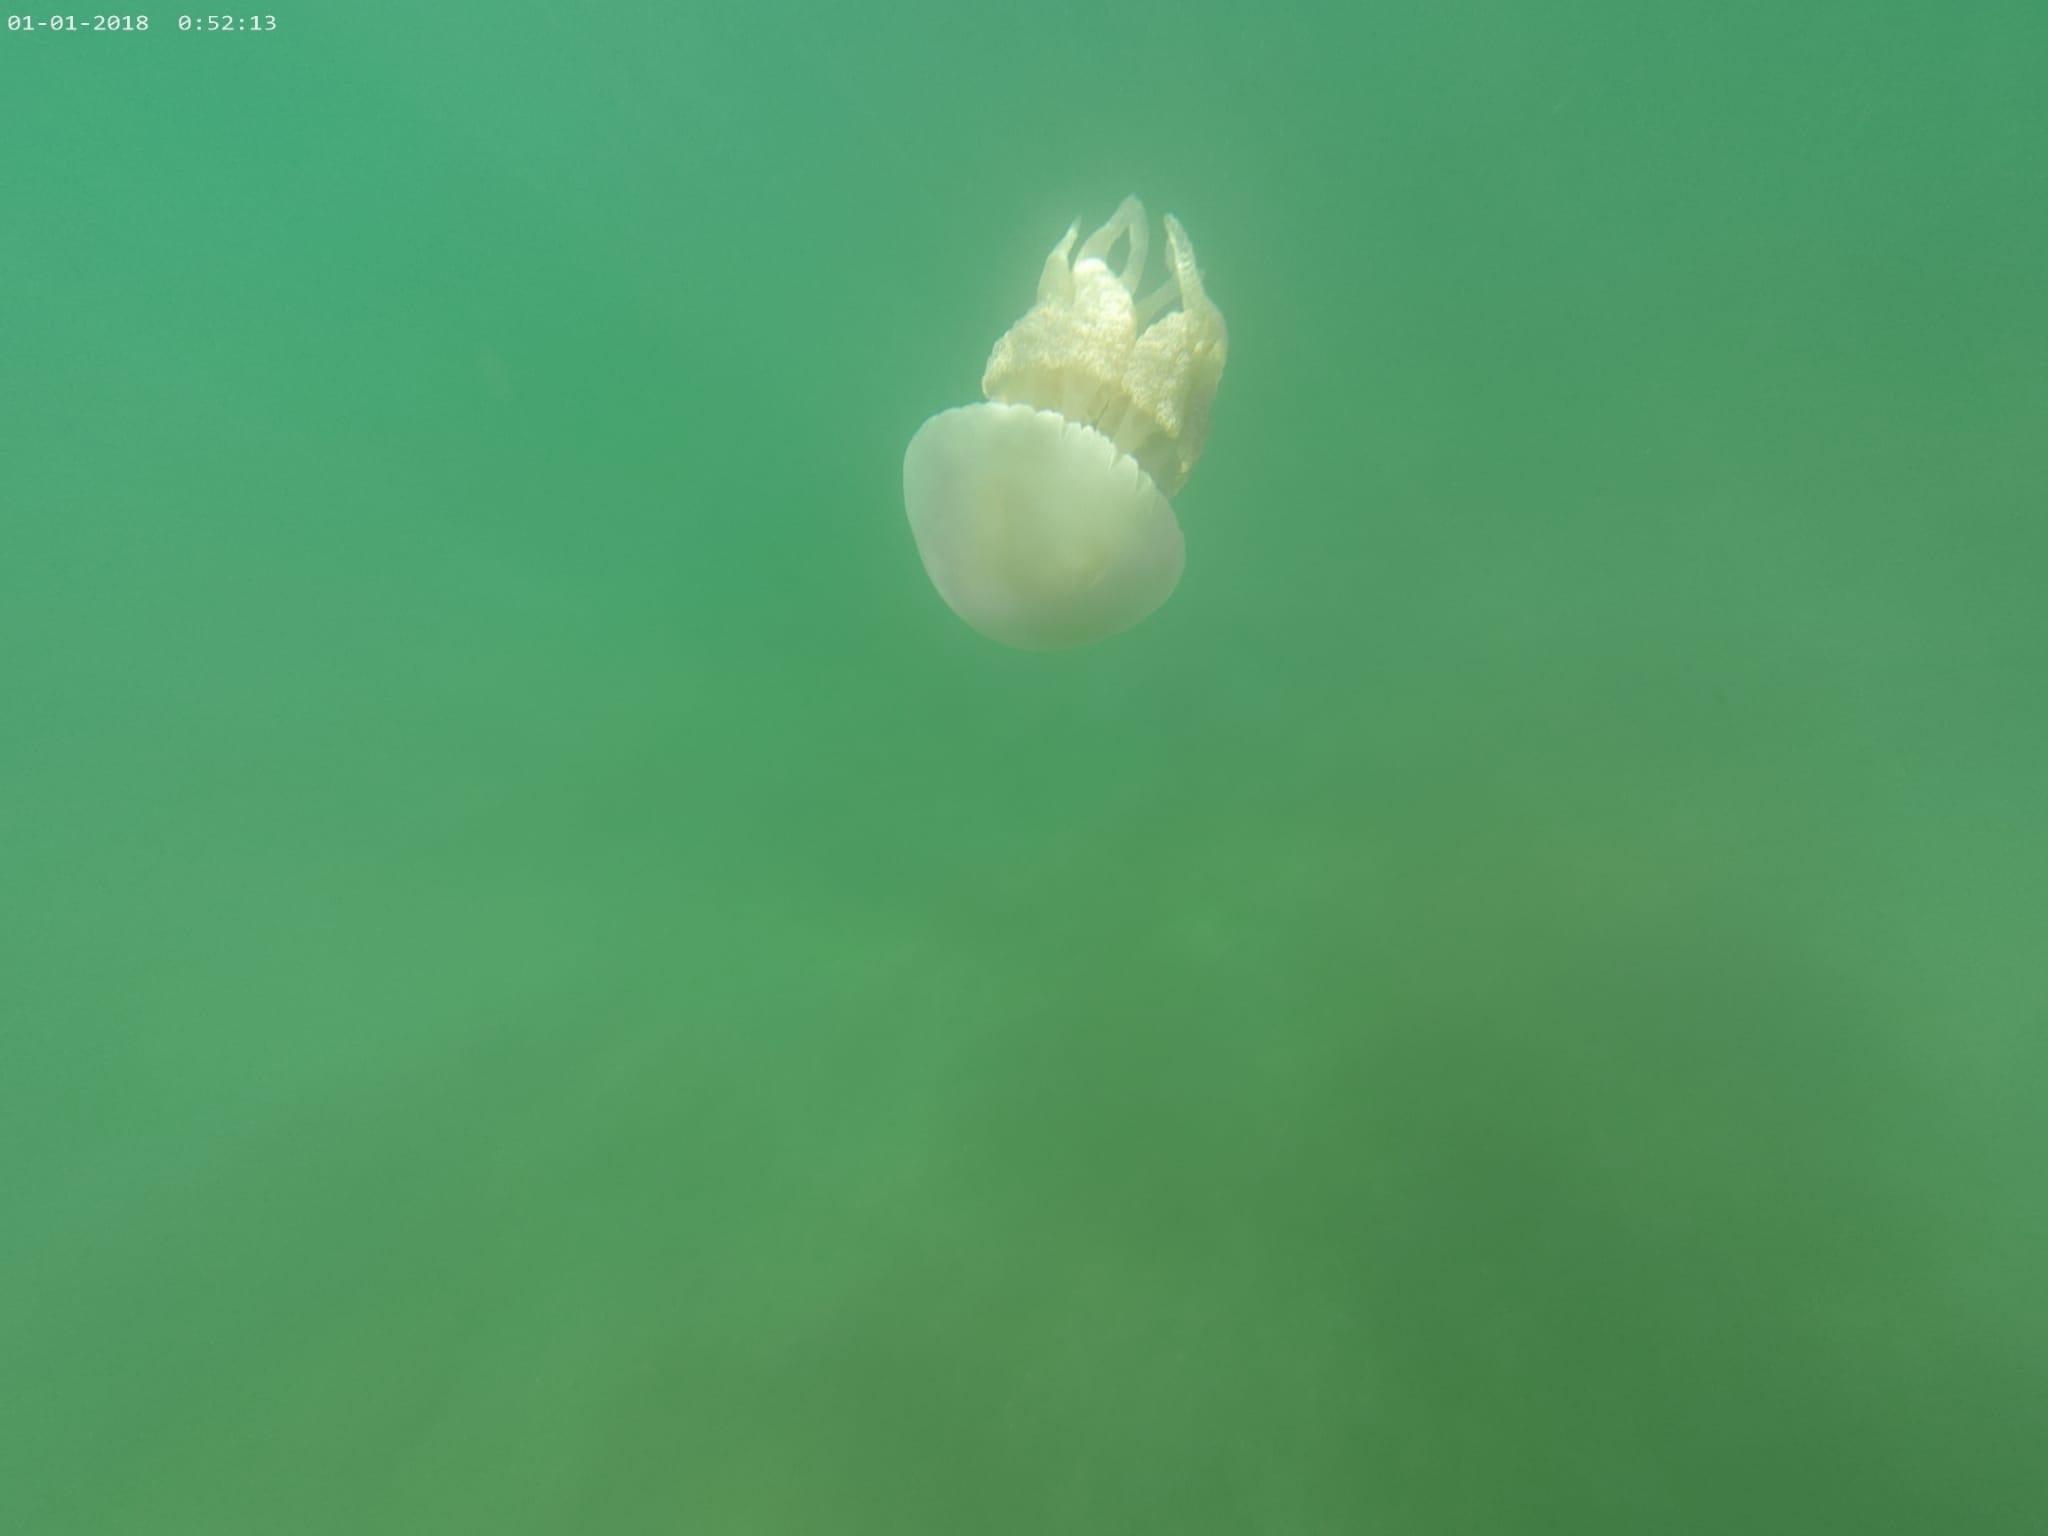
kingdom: Animalia
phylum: Cnidaria
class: Scyphozoa
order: Rhizostomeae
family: Catostylidae
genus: Catostylus
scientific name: Catostylus tagi
